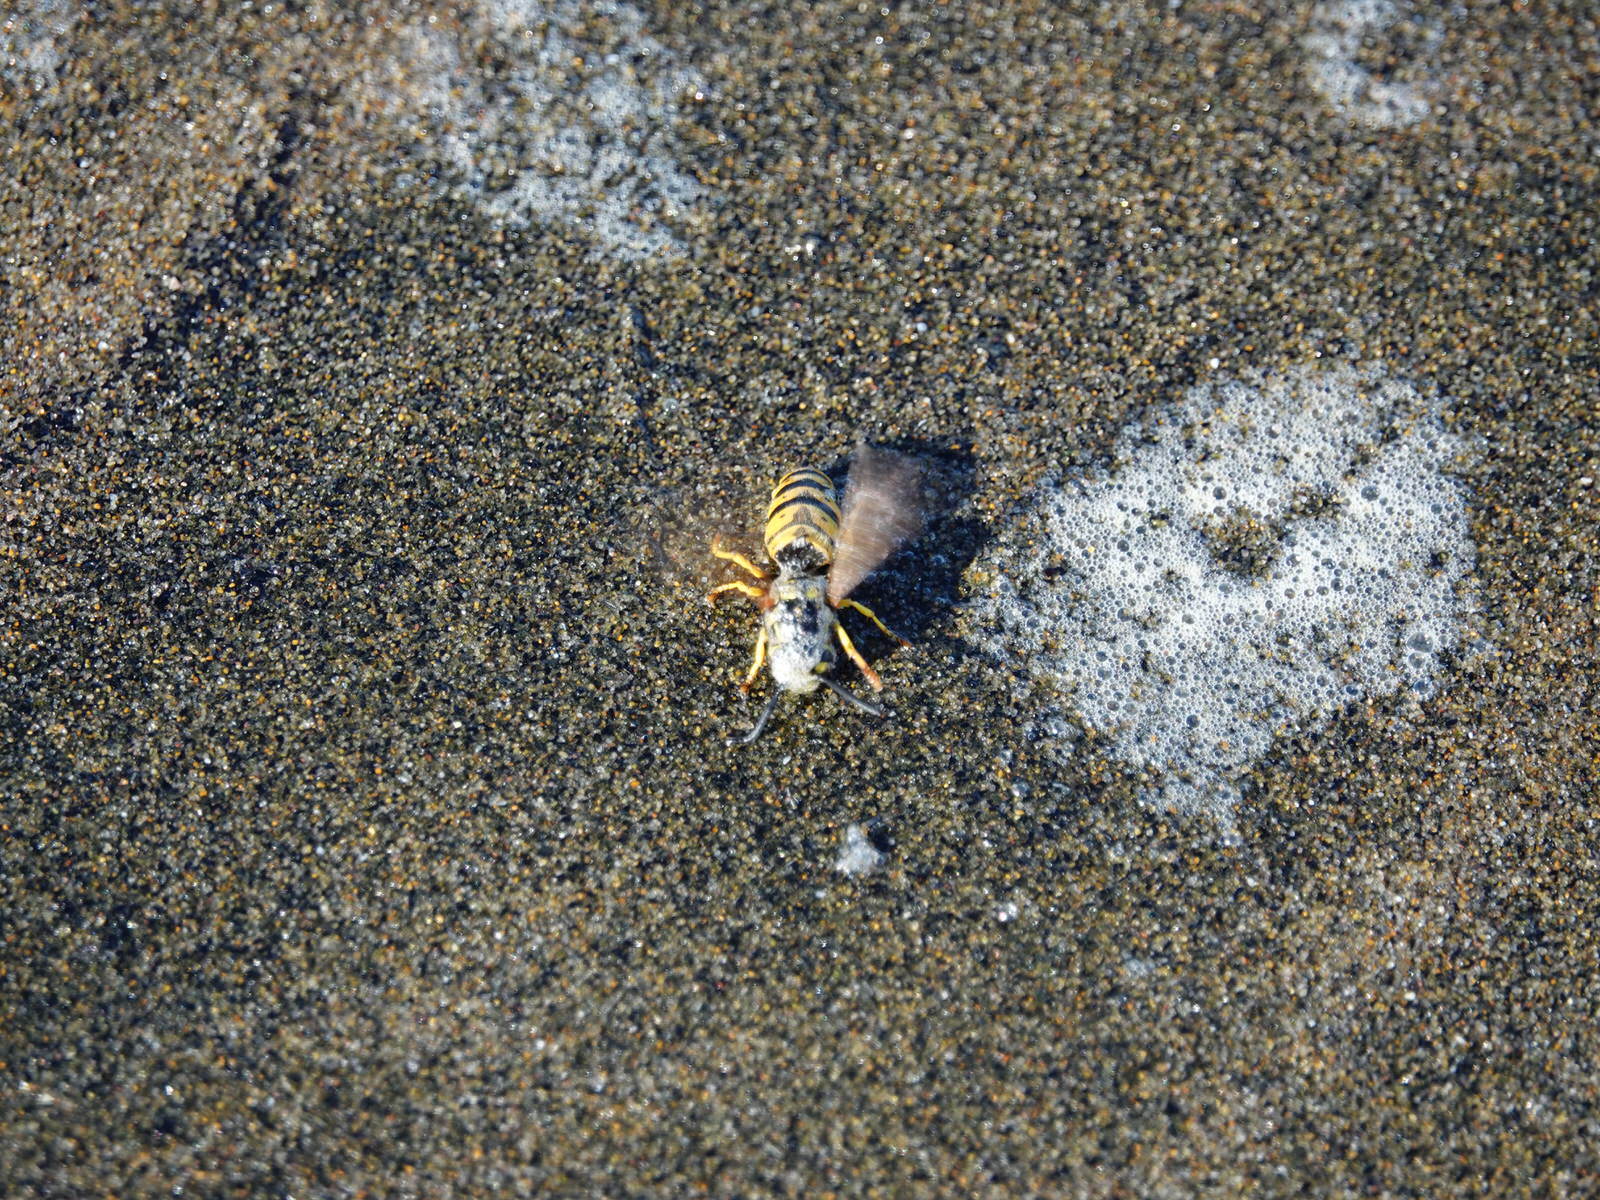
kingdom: Animalia
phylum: Arthropoda
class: Insecta
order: Hymenoptera
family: Vespidae
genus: Vespula
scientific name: Vespula germanica
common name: German wasp
